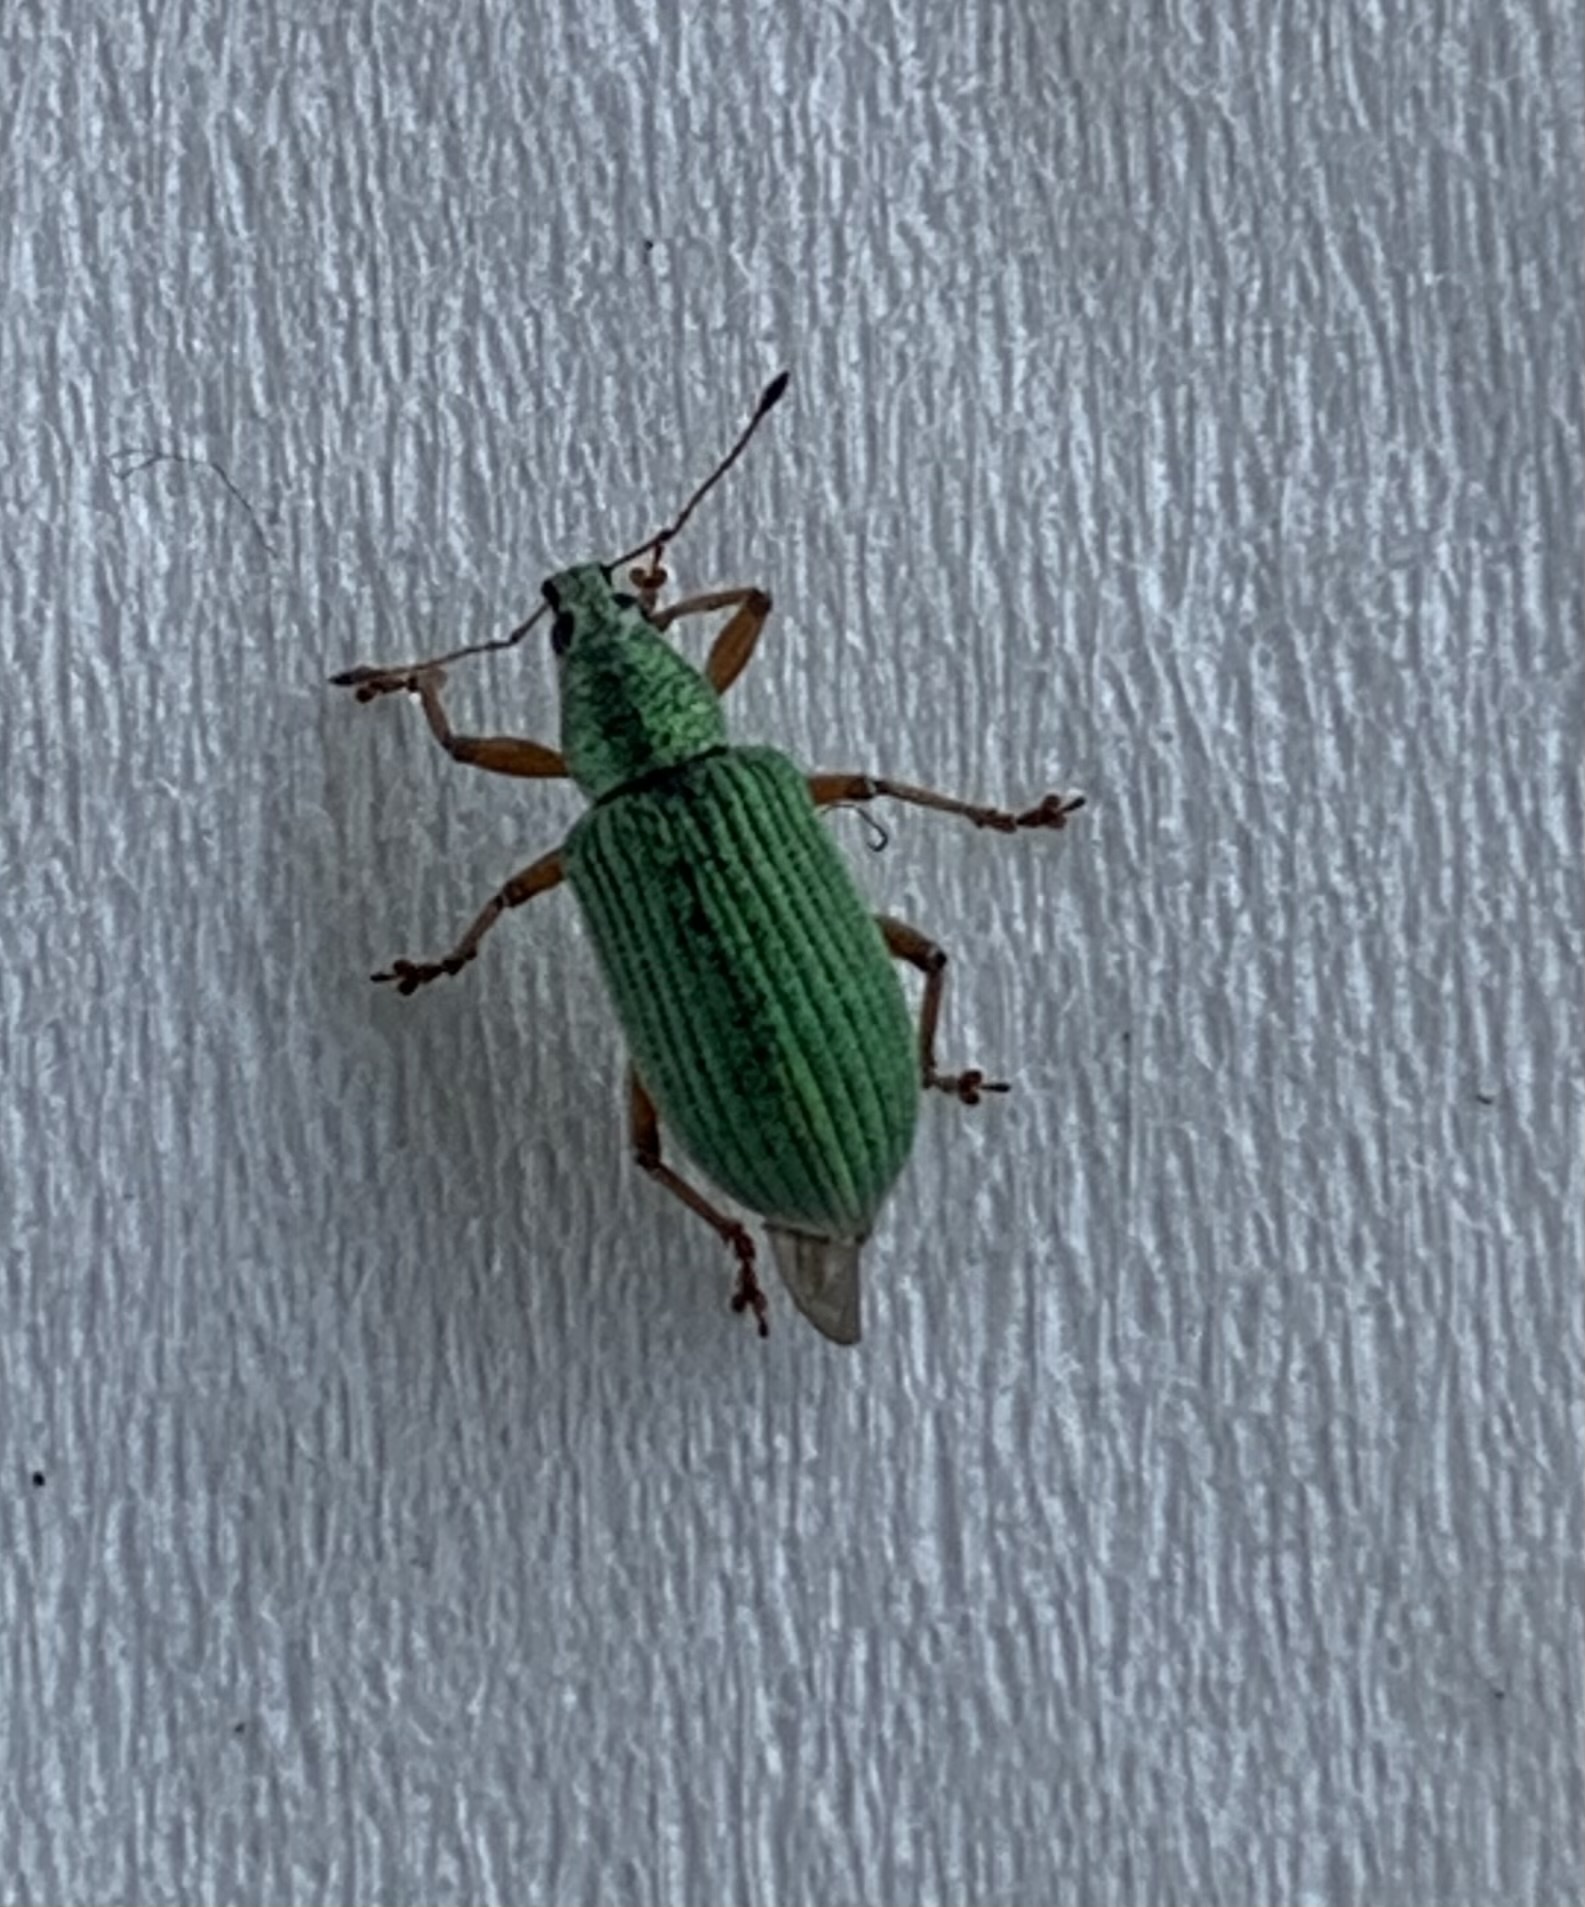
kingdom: Animalia
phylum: Arthropoda
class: Insecta
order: Coleoptera
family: Curculionidae
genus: Polydrusus
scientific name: Polydrusus formosus
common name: Weevil
